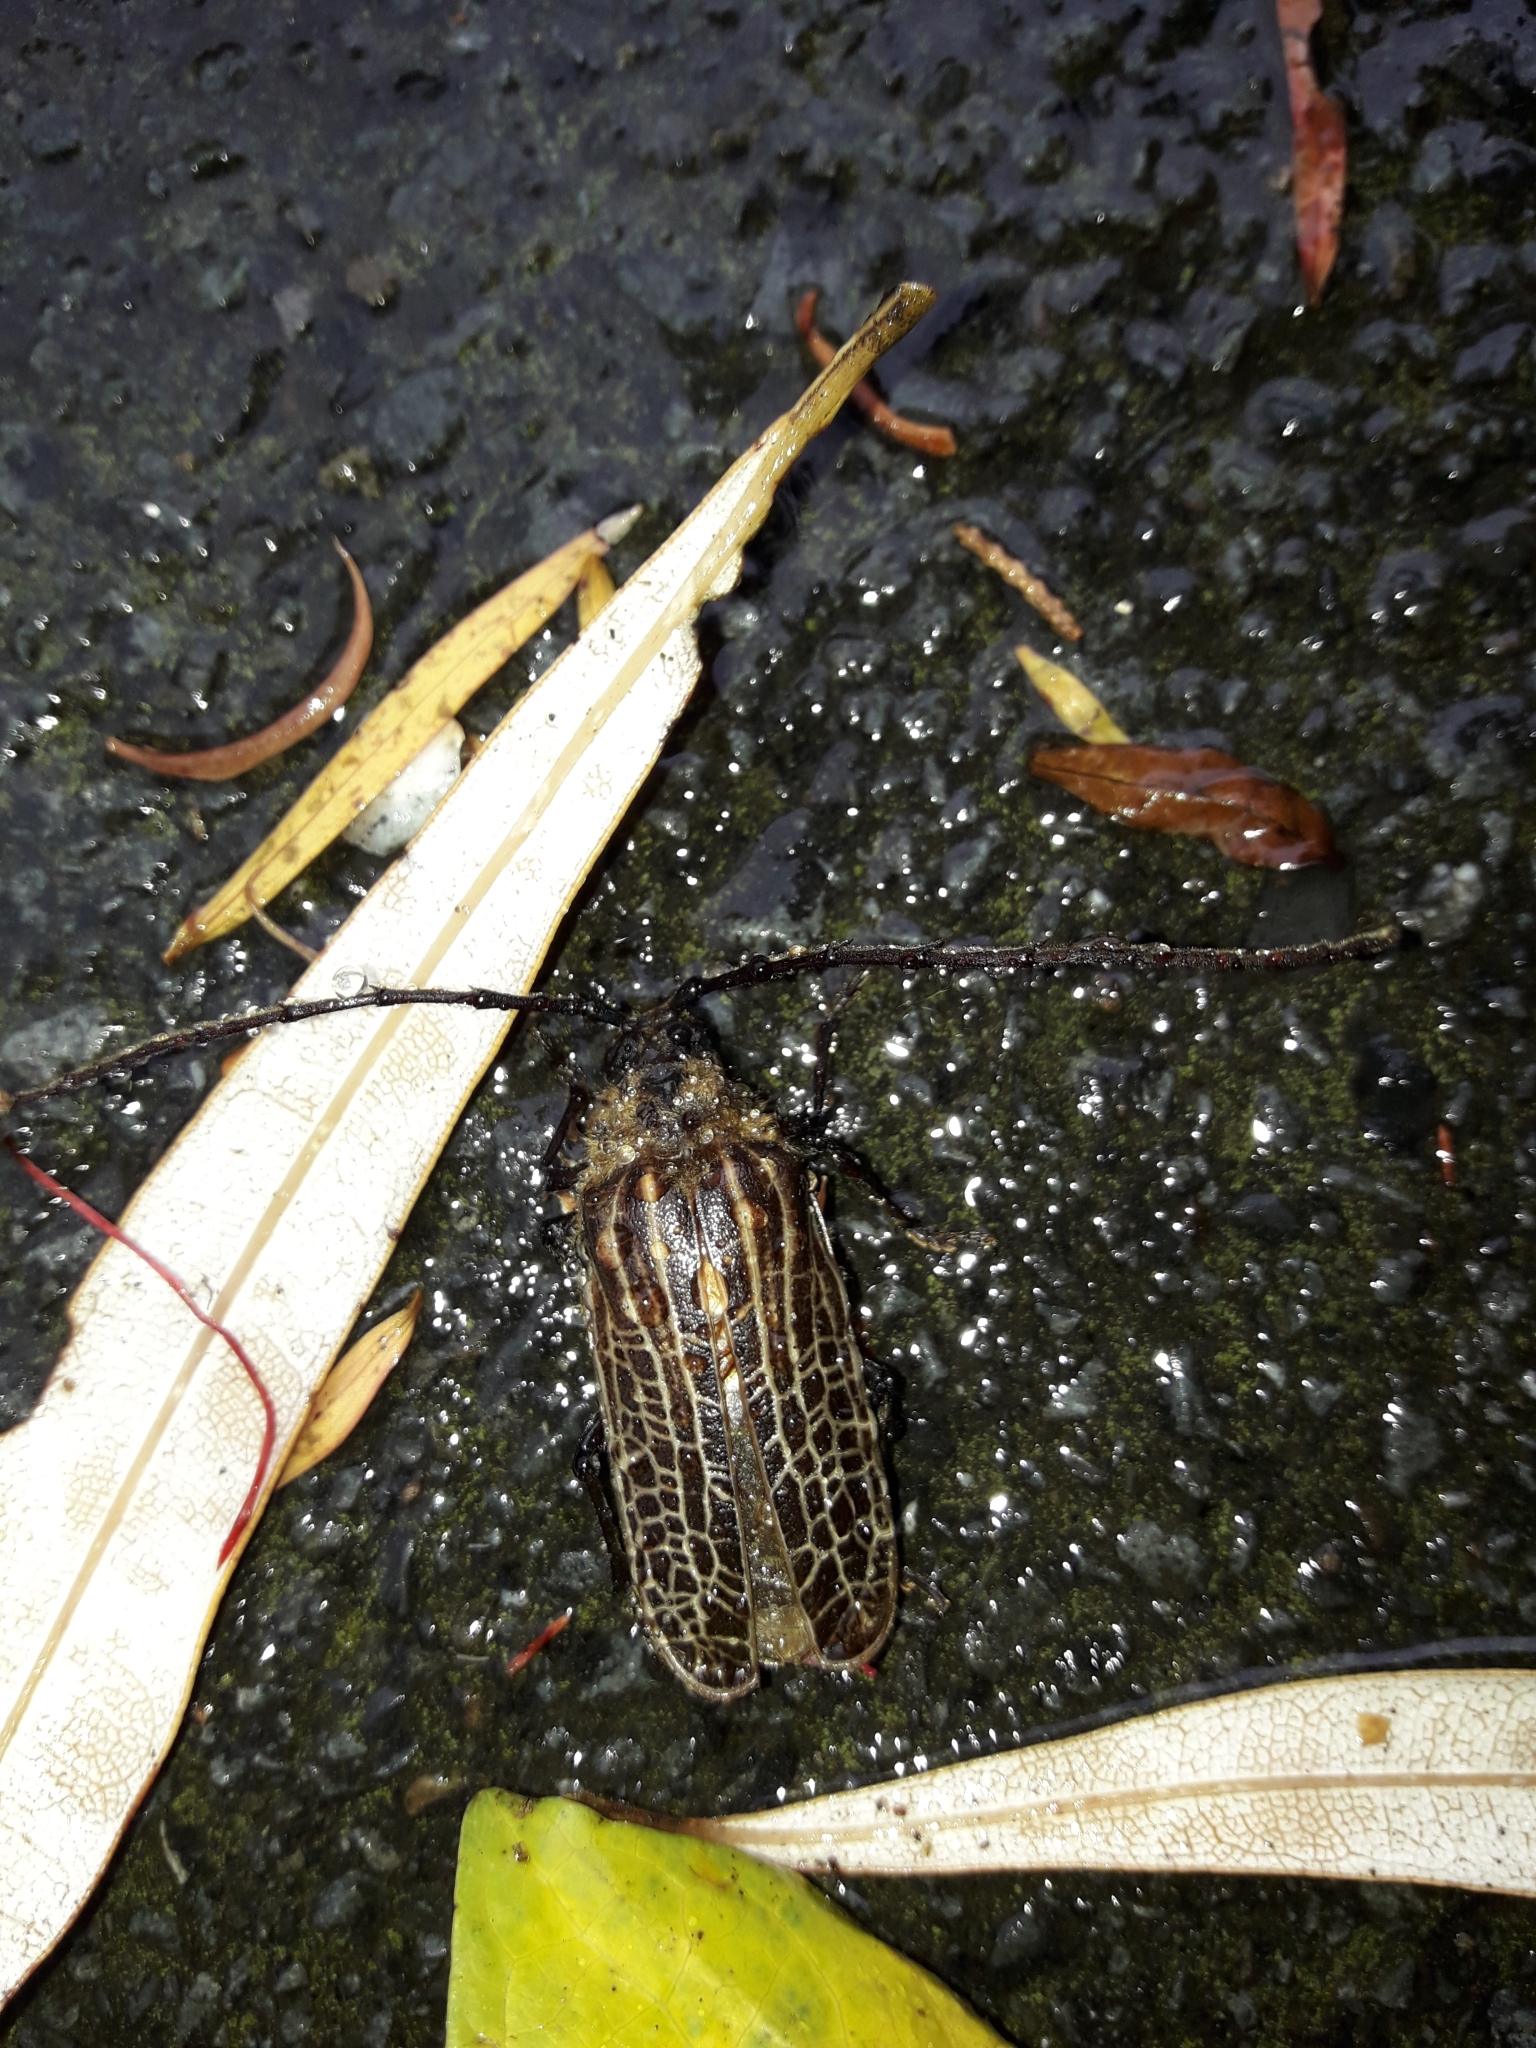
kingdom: Animalia
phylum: Arthropoda
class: Insecta
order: Coleoptera
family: Cerambycidae
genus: Prionoplus
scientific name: Prionoplus reticularis
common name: Huhu beetle
